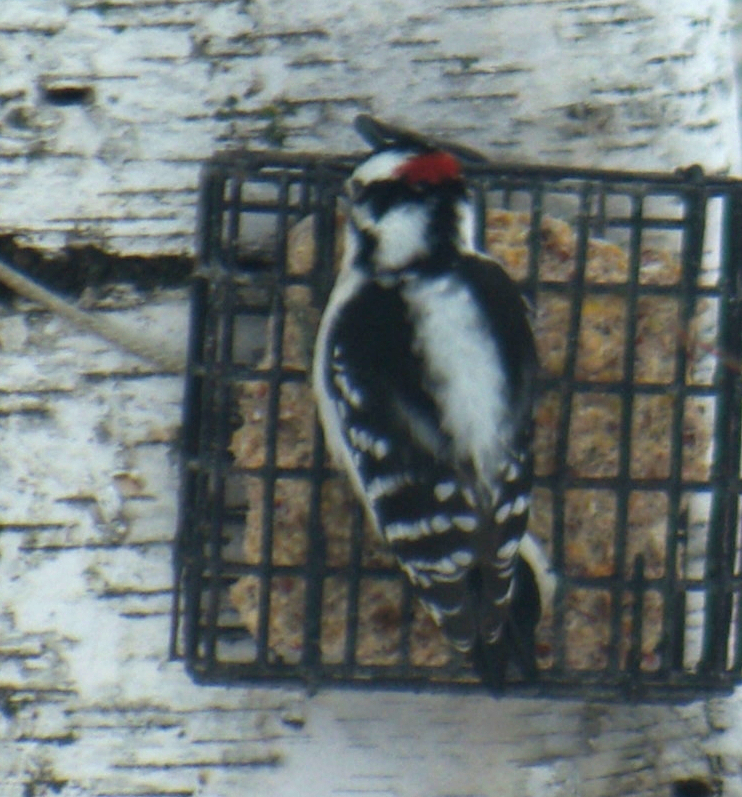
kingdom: Animalia
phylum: Chordata
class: Aves
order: Piciformes
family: Picidae
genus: Dryobates
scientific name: Dryobates pubescens
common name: Downy woodpecker
